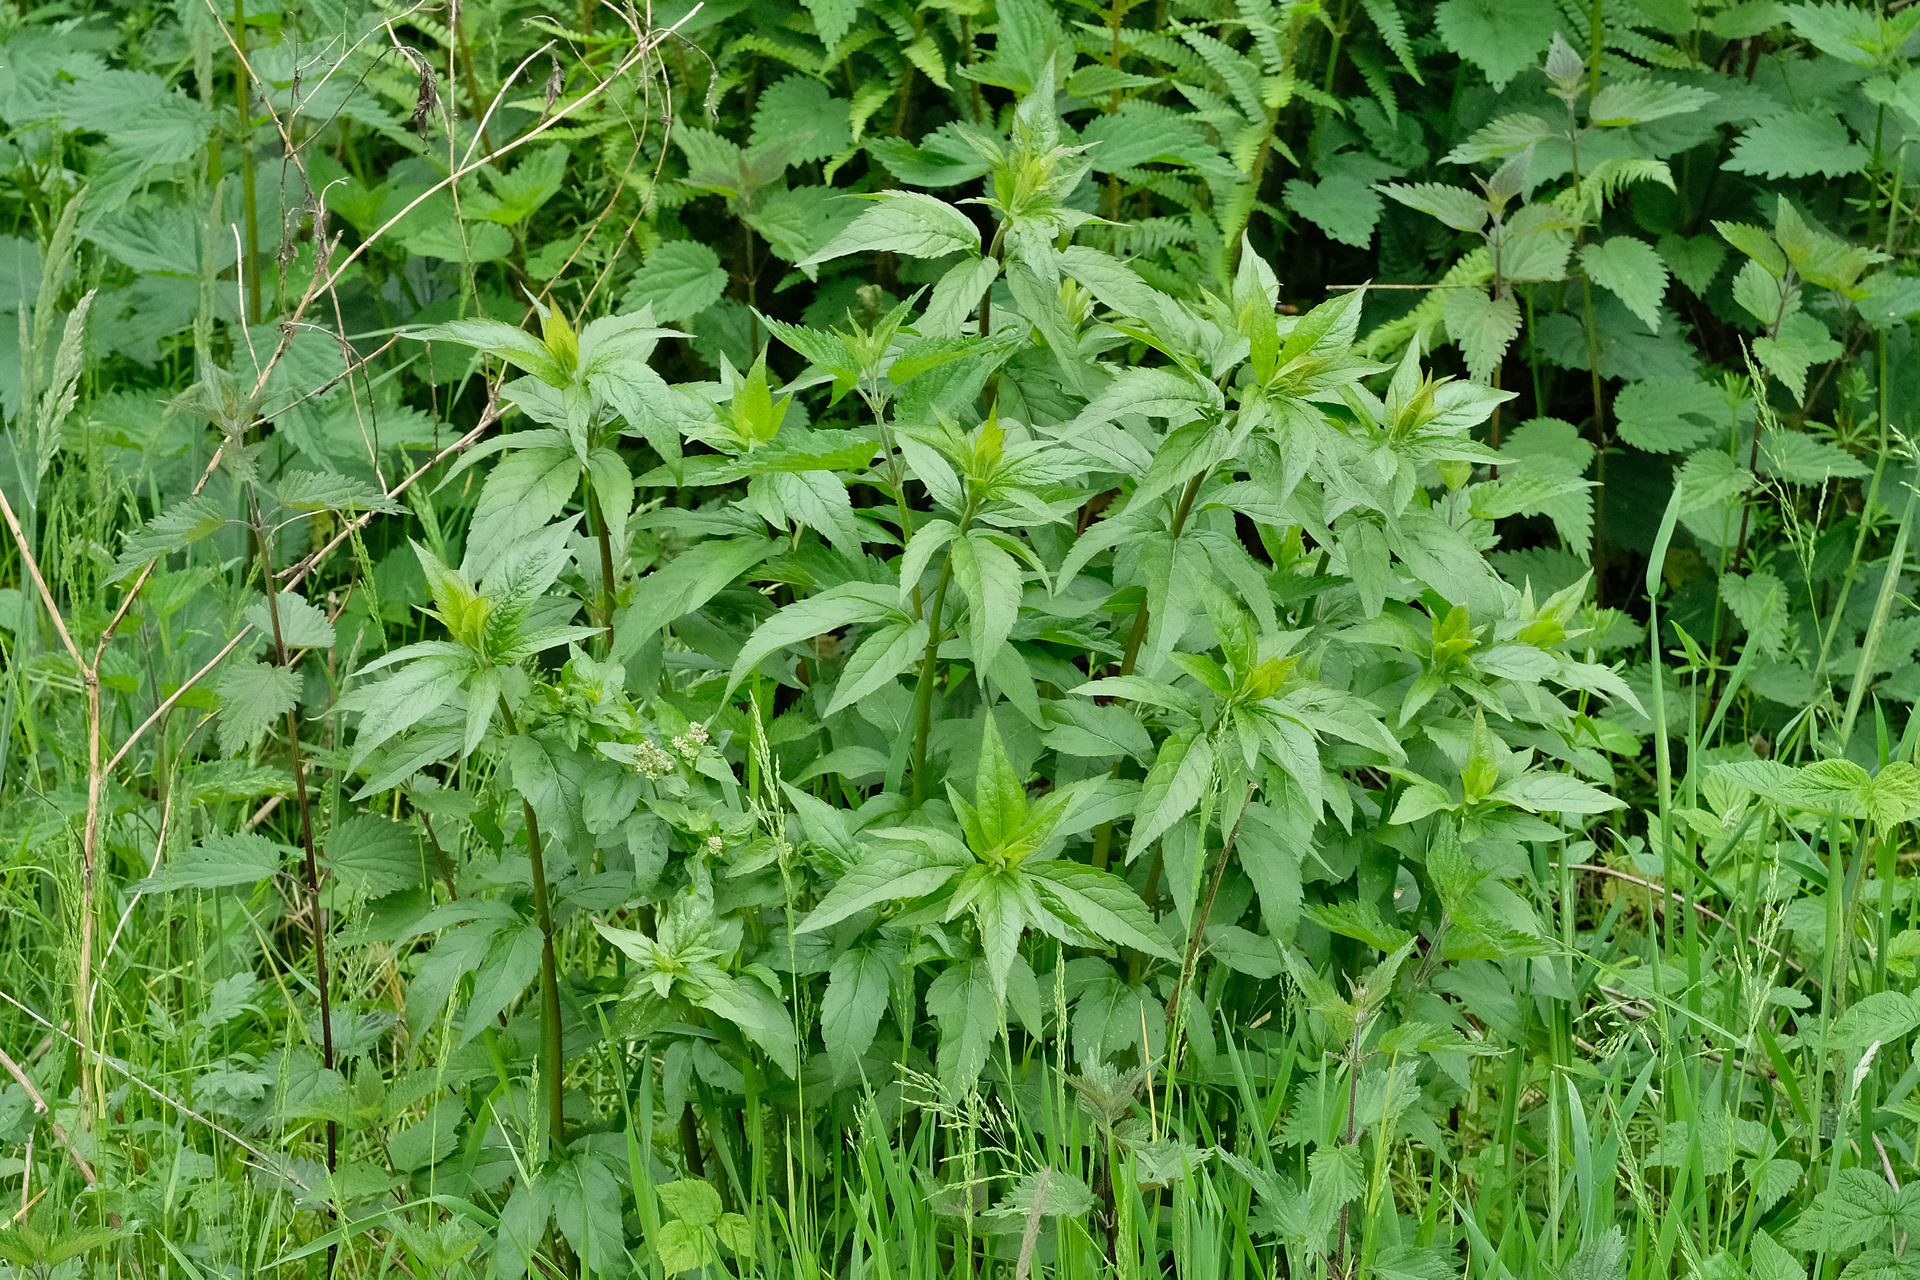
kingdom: Plantae
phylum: Tracheophyta
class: Magnoliopsida
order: Asterales
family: Asteraceae
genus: Eupatorium
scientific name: Eupatorium cannabinum
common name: Hemp-agrimony
